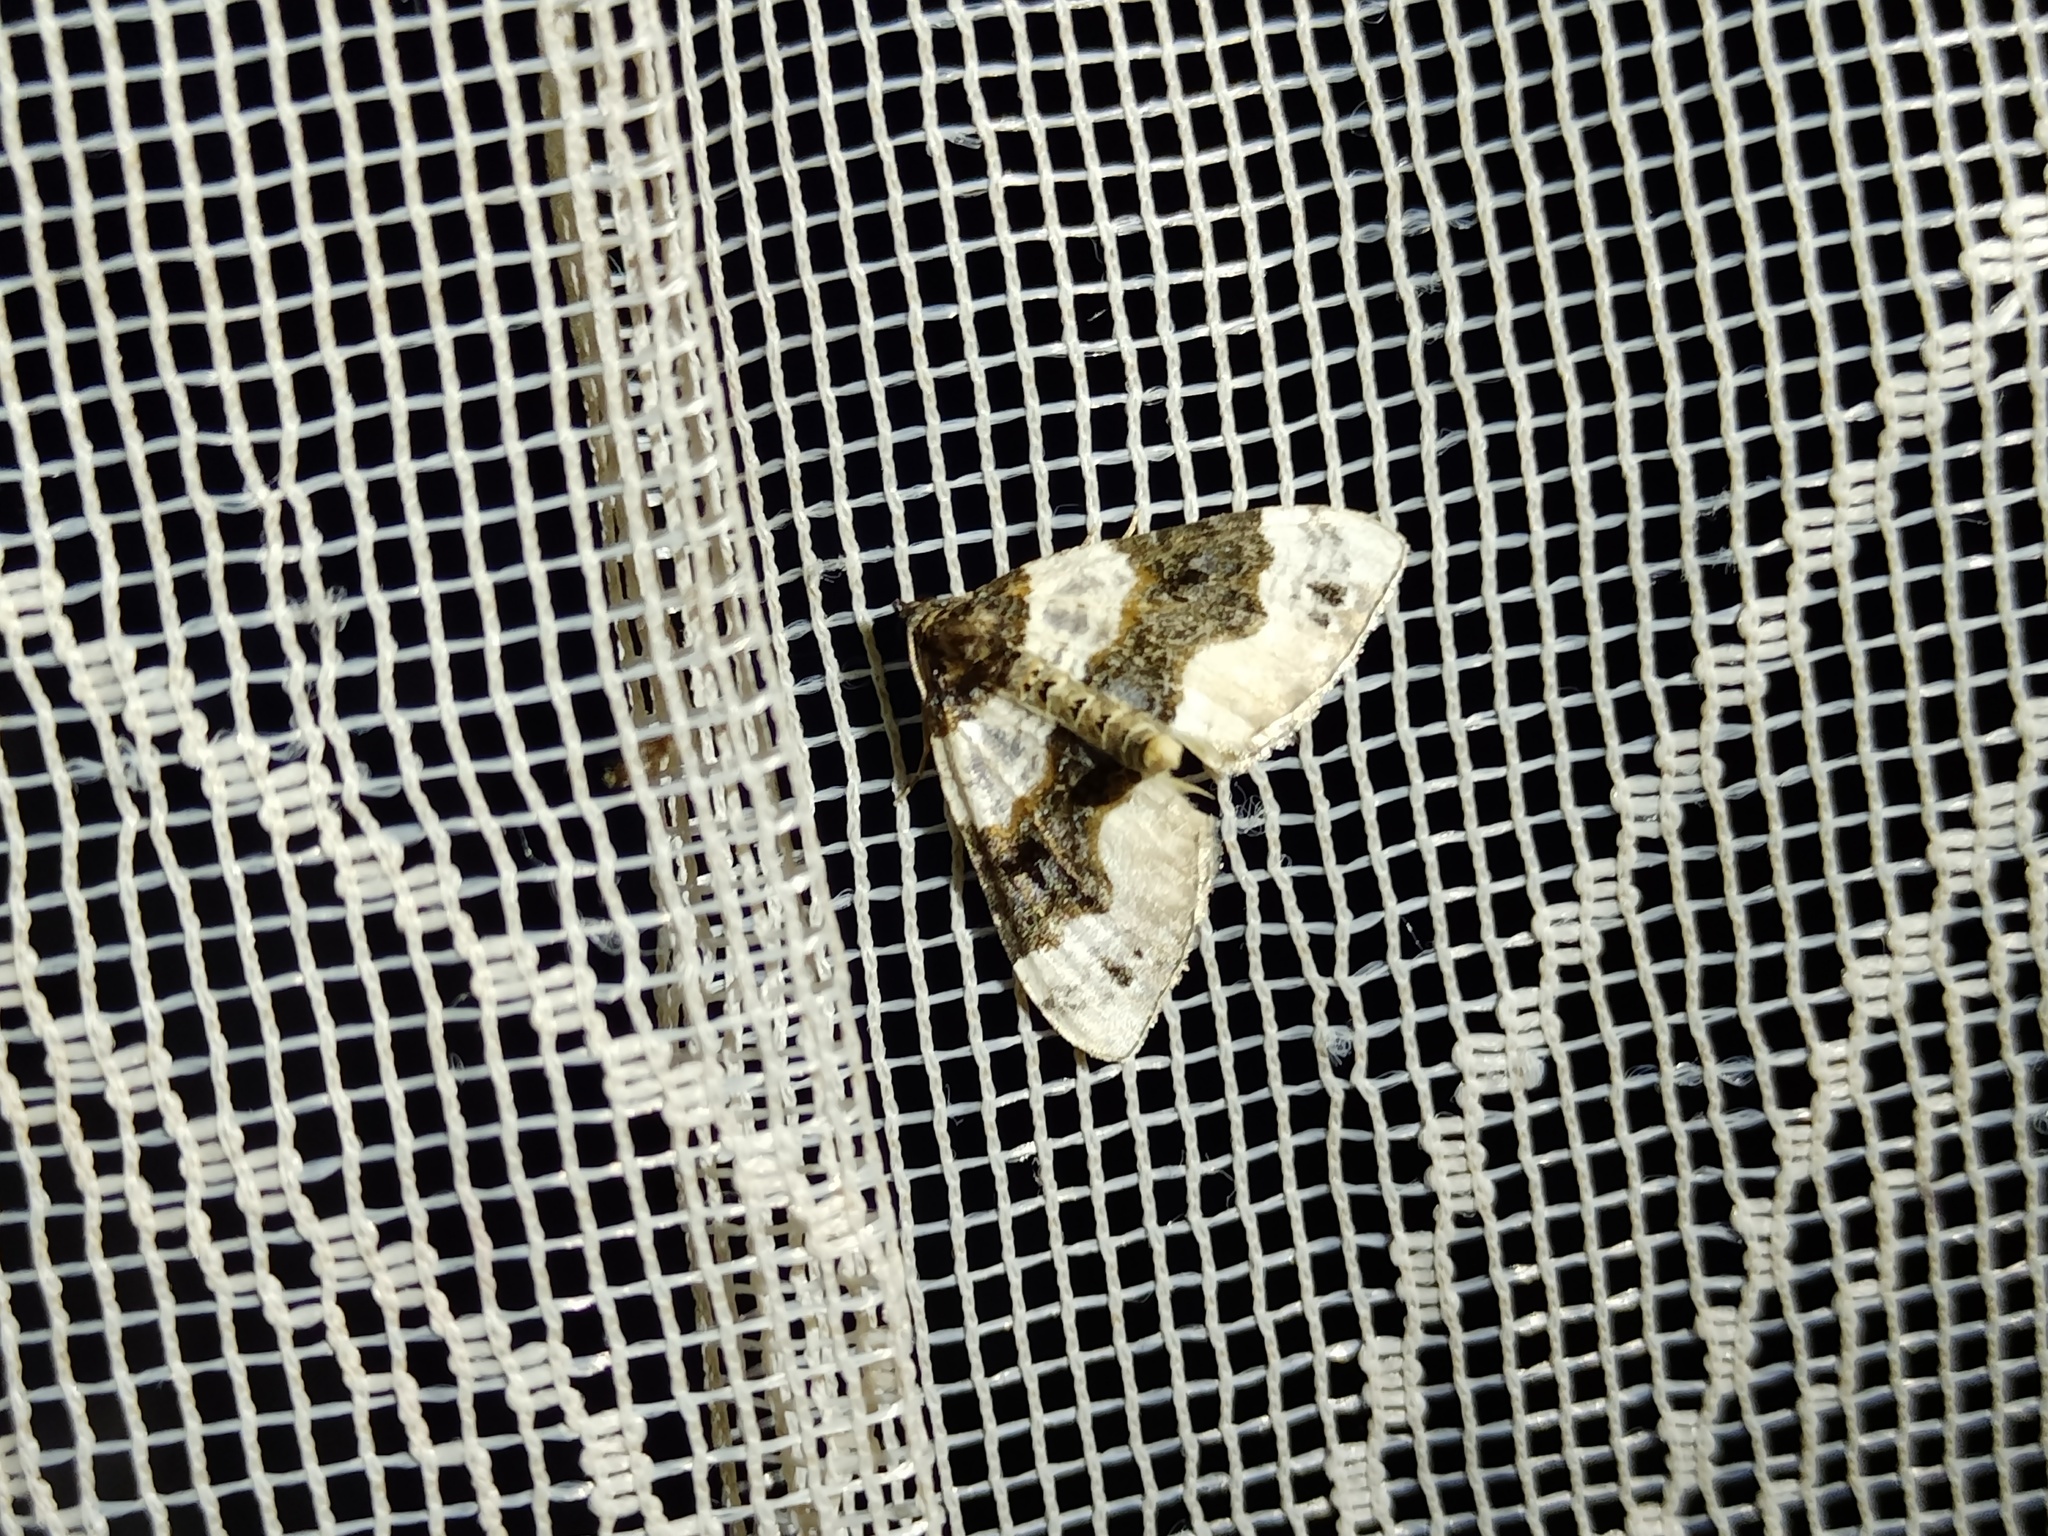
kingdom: Animalia
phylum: Arthropoda
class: Insecta
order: Lepidoptera
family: Geometridae
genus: Cosmorhoe
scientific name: Cosmorhoe ocellata
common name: Purple bar
